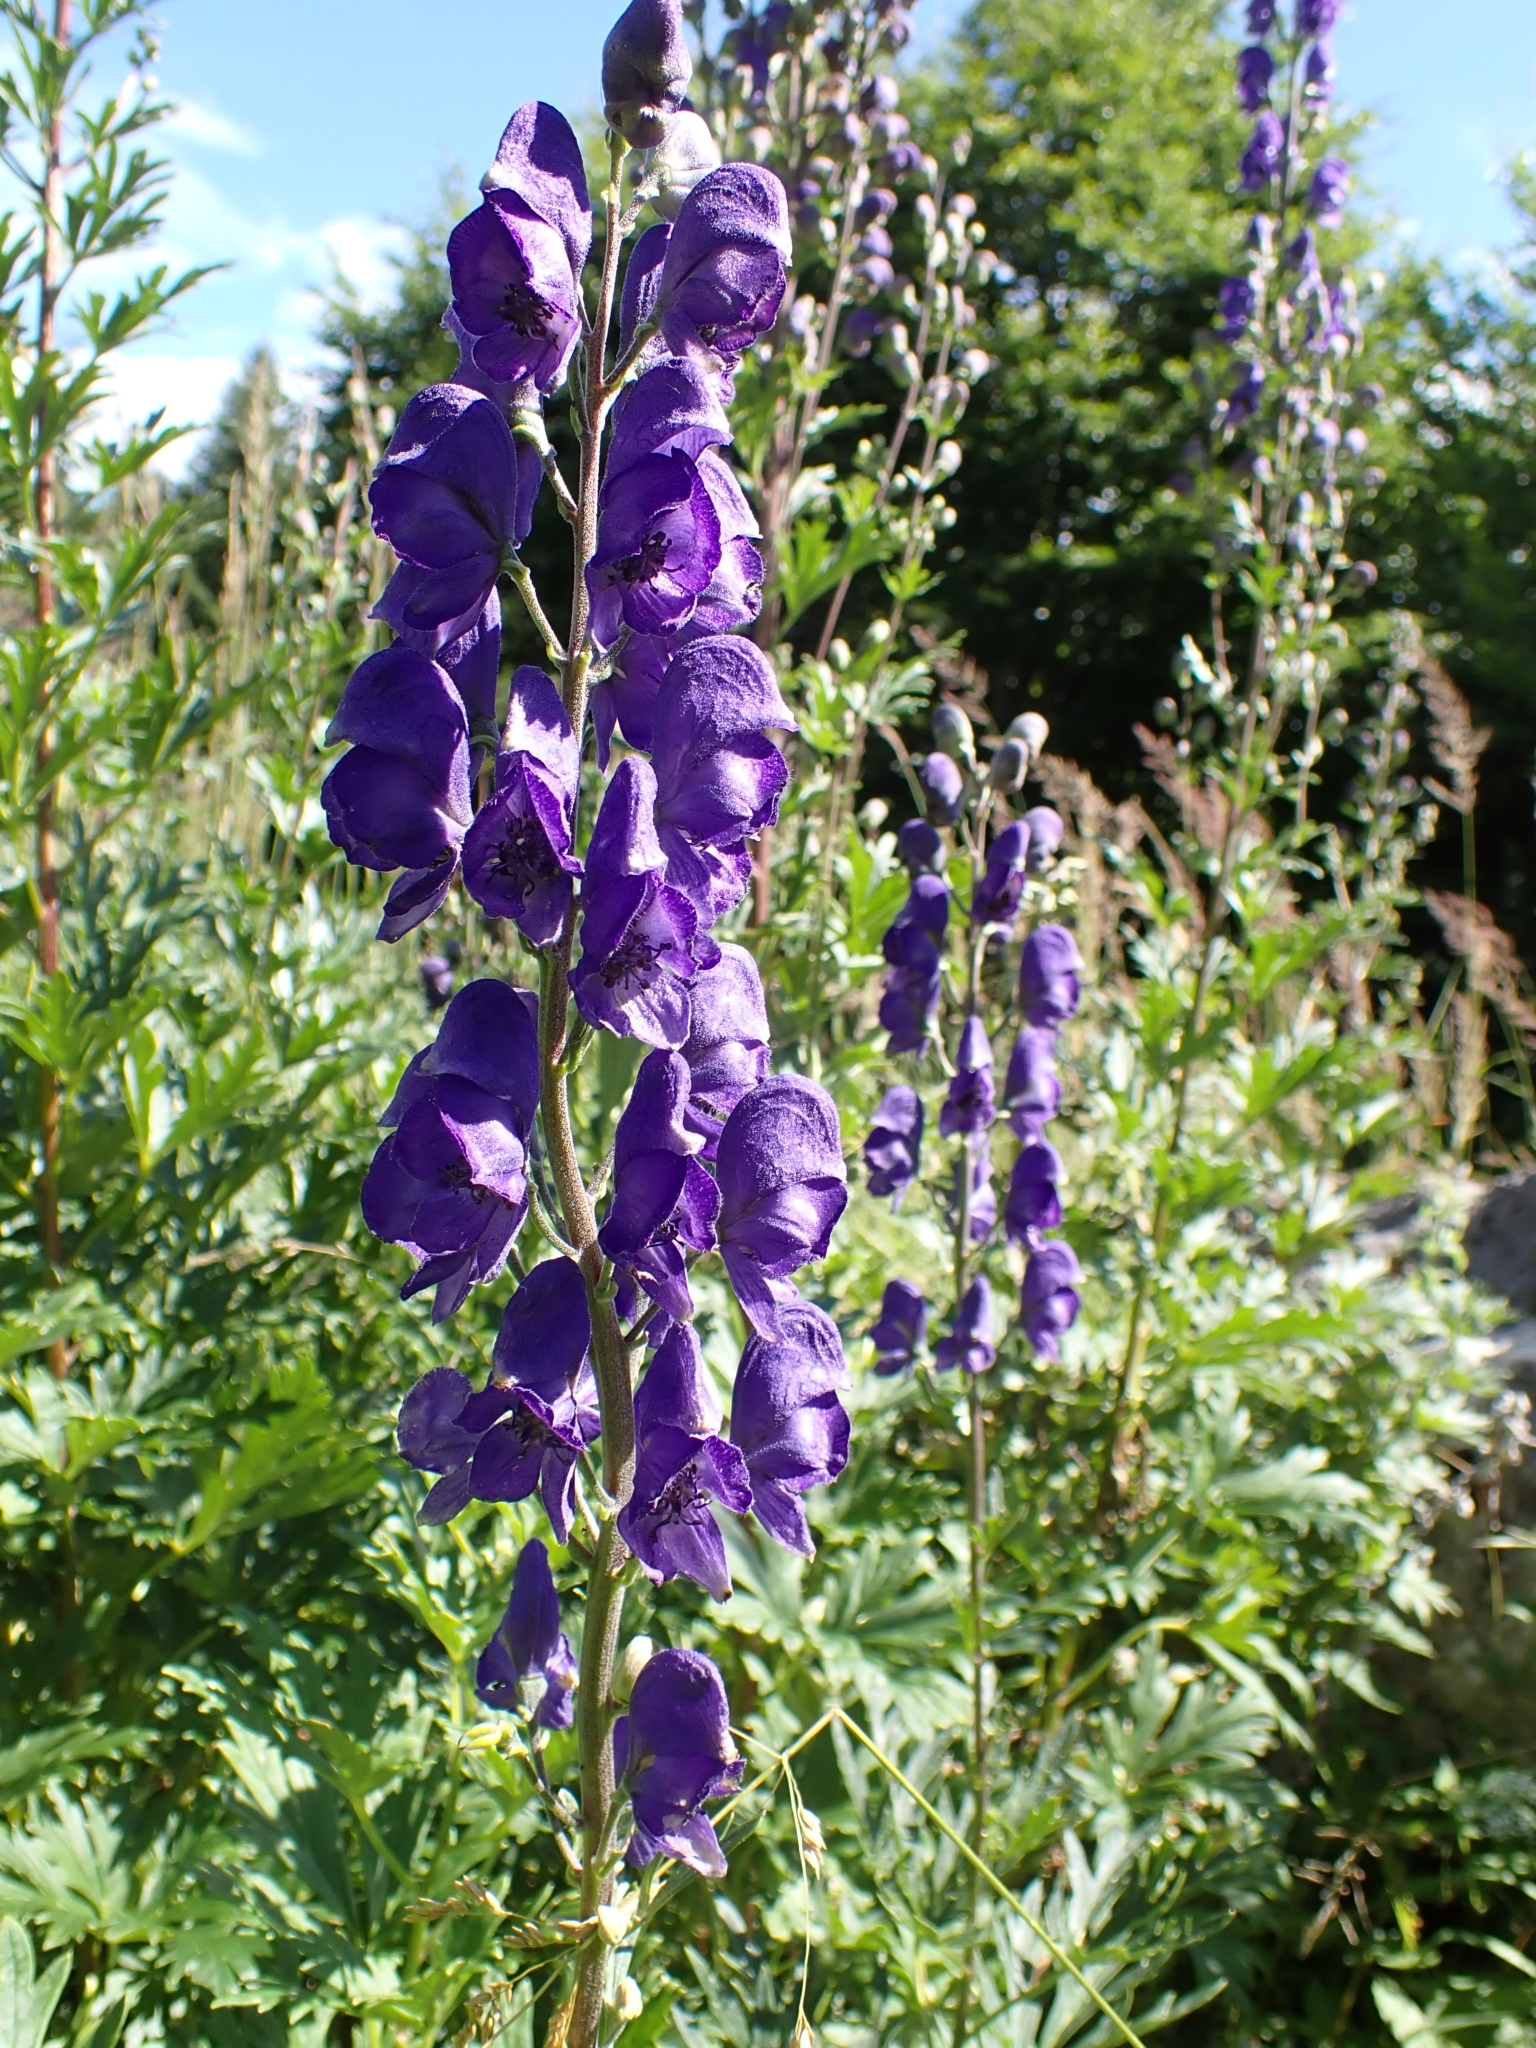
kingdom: Plantae
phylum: Tracheophyta
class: Magnoliopsida
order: Ranunculales
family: Ranunculaceae
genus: Aconitum
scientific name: Aconitum napellus
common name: Garden monkshood
